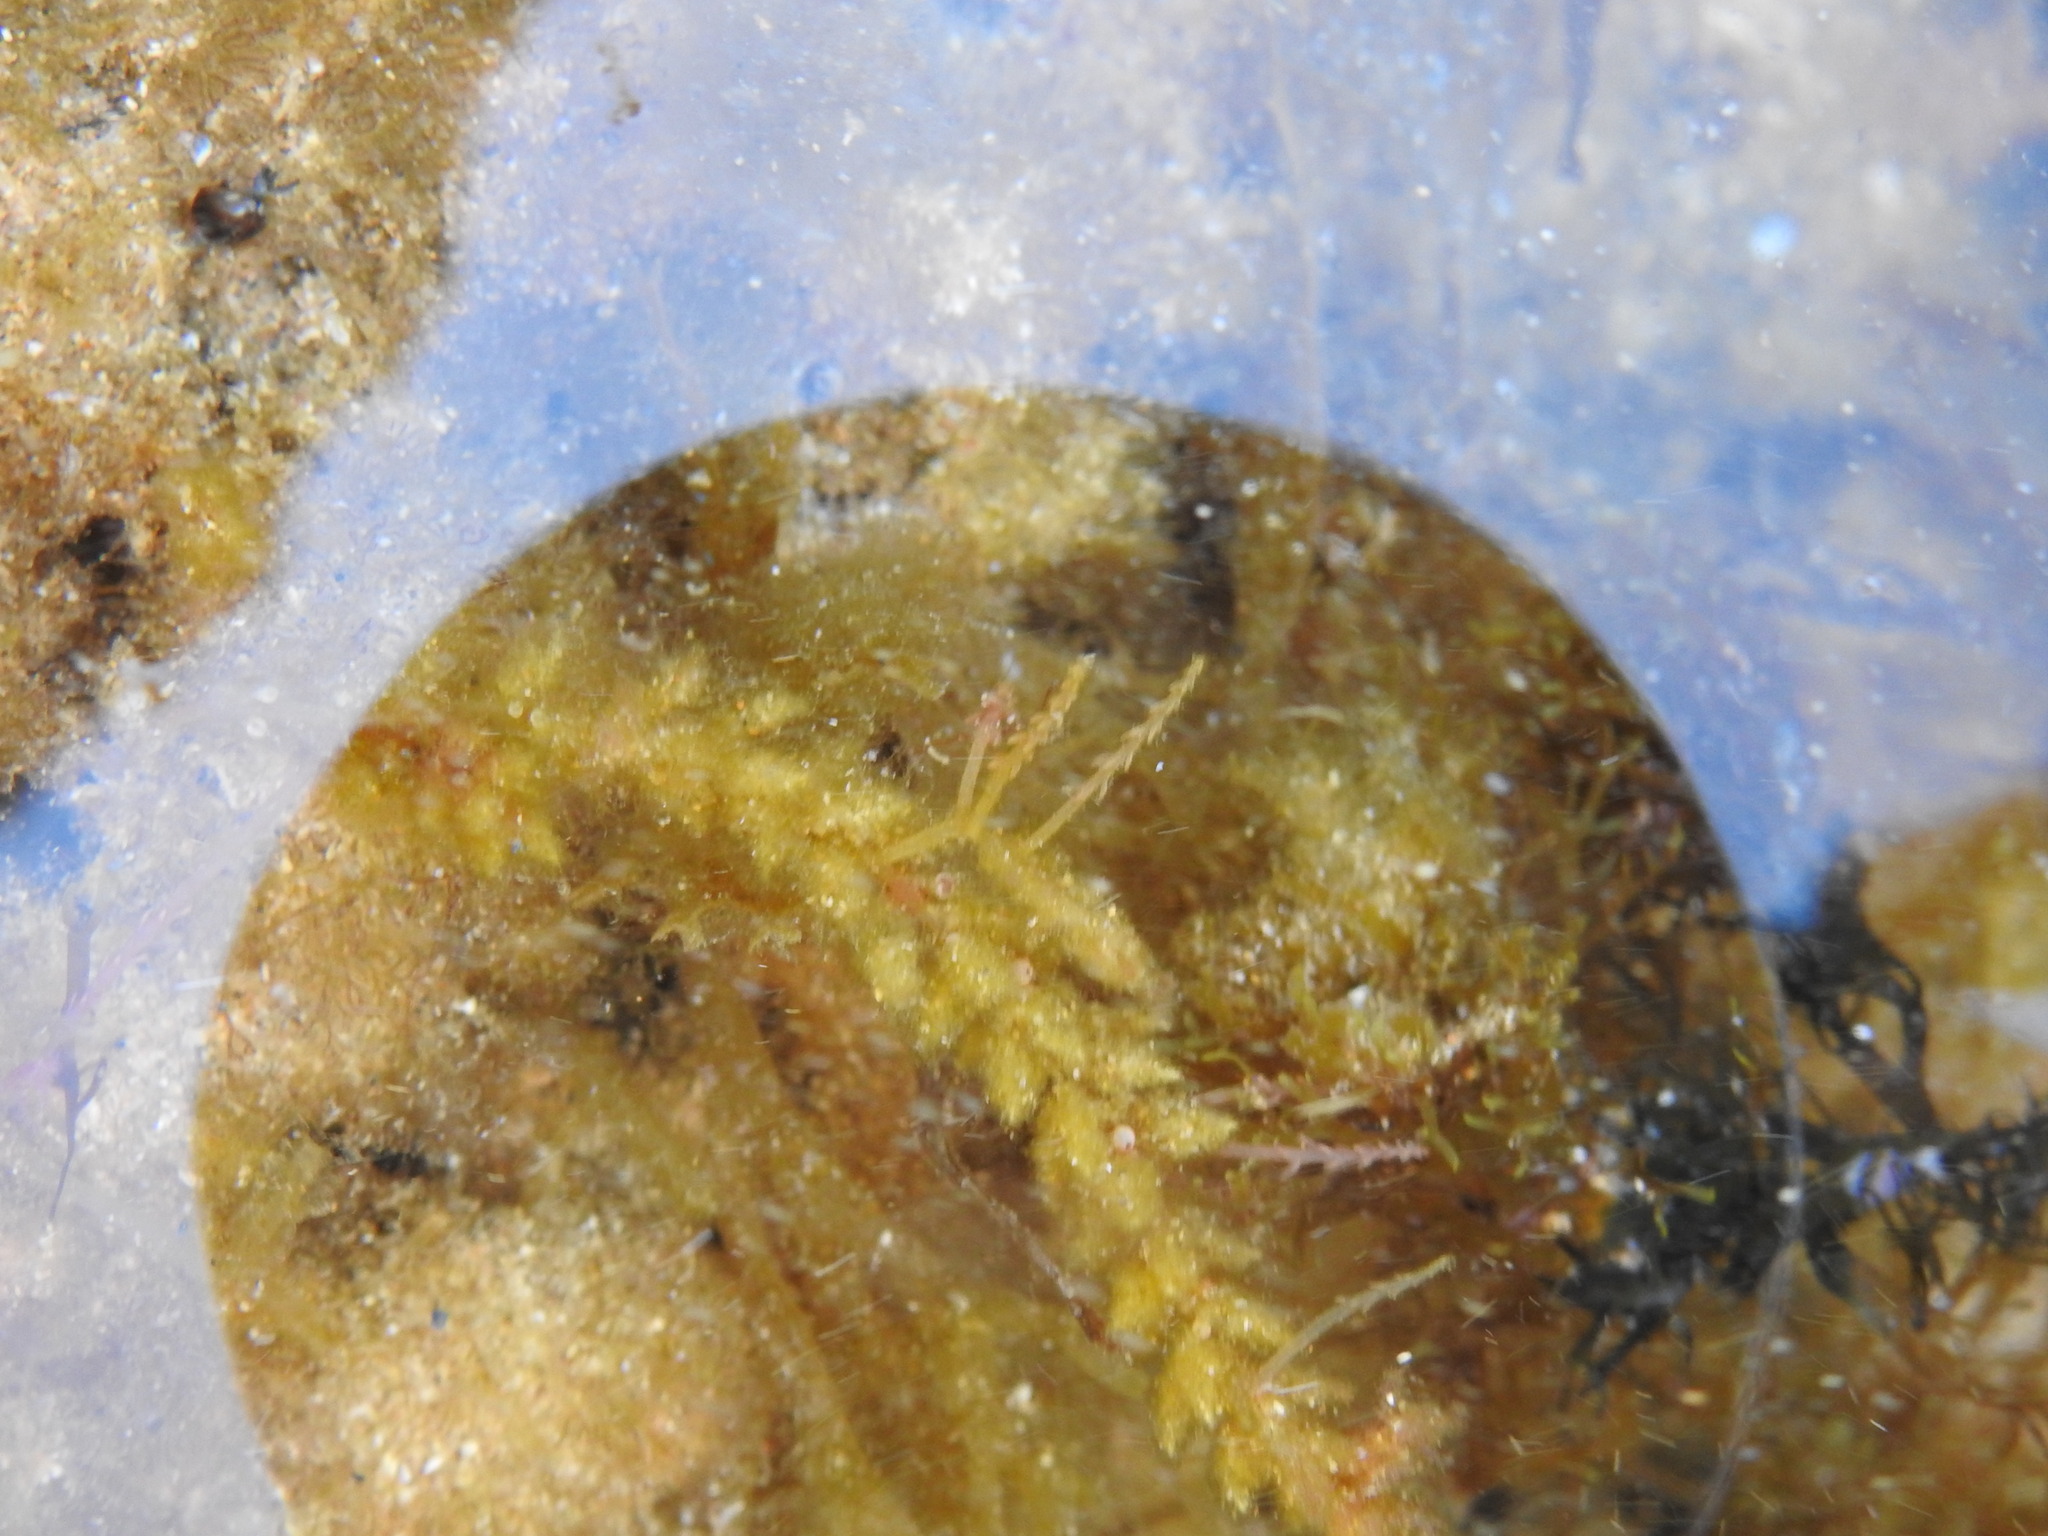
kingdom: Plantae
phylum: Rhodophyta
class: Florideophyceae
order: Bonnemaisoniales
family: Bonnemaisoniaceae
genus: Asparagopsis
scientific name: Asparagopsis armata
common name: Harpoon weed
